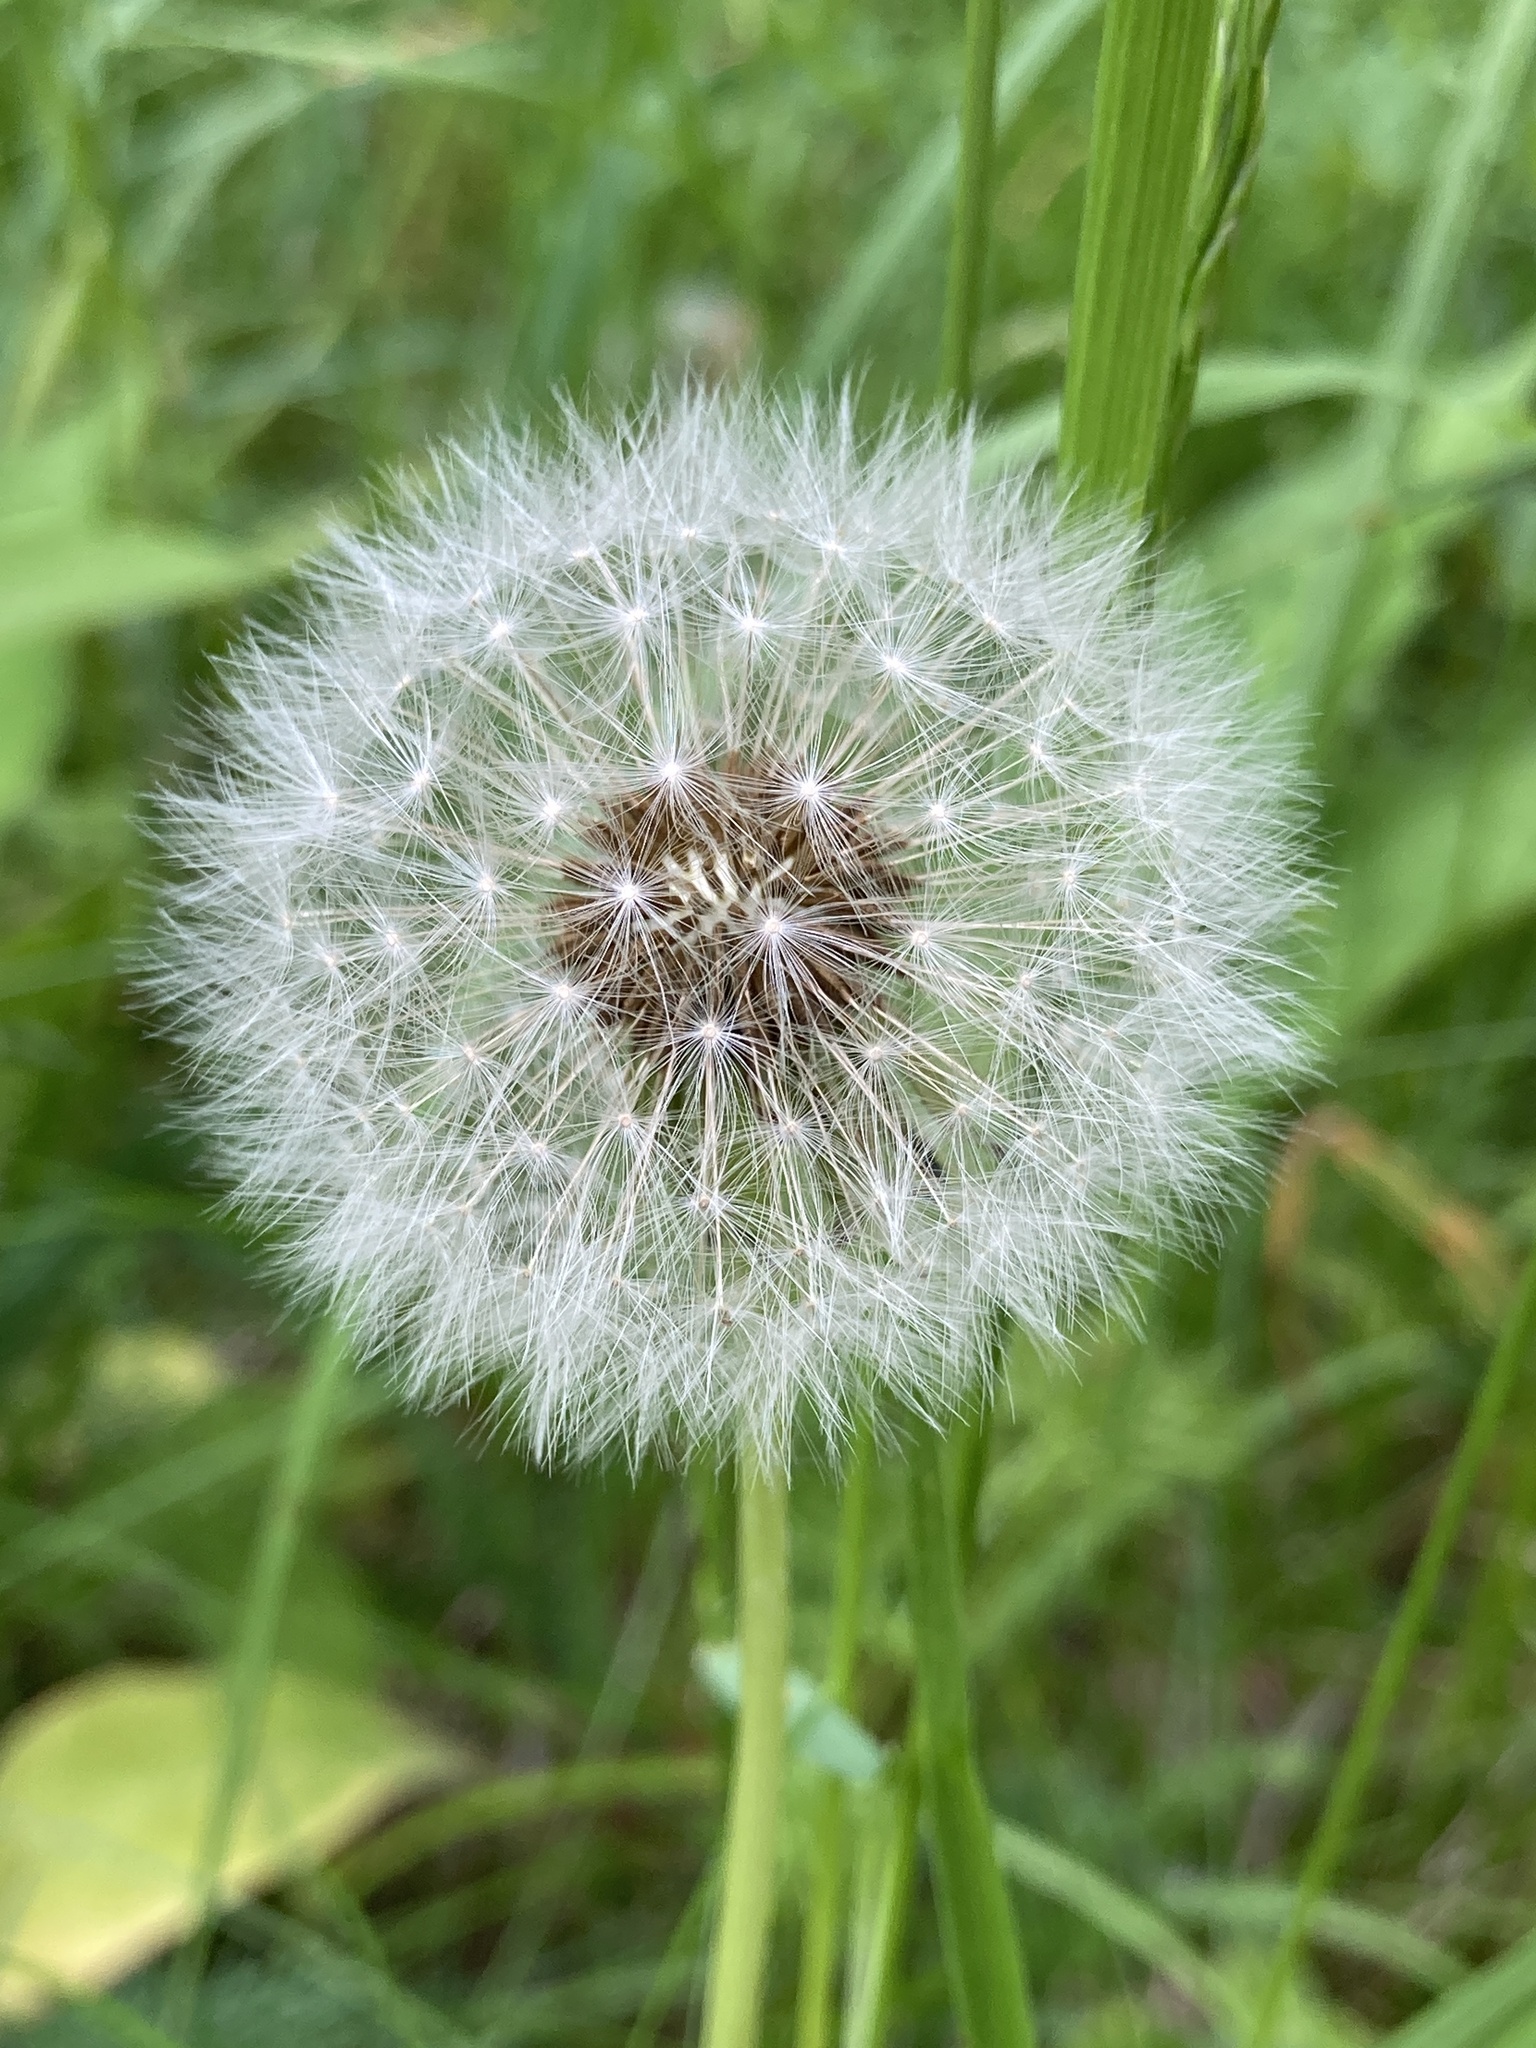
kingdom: Plantae
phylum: Tracheophyta
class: Magnoliopsida
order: Asterales
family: Asteraceae
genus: Taraxacum
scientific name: Taraxacum officinale
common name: Common dandelion
